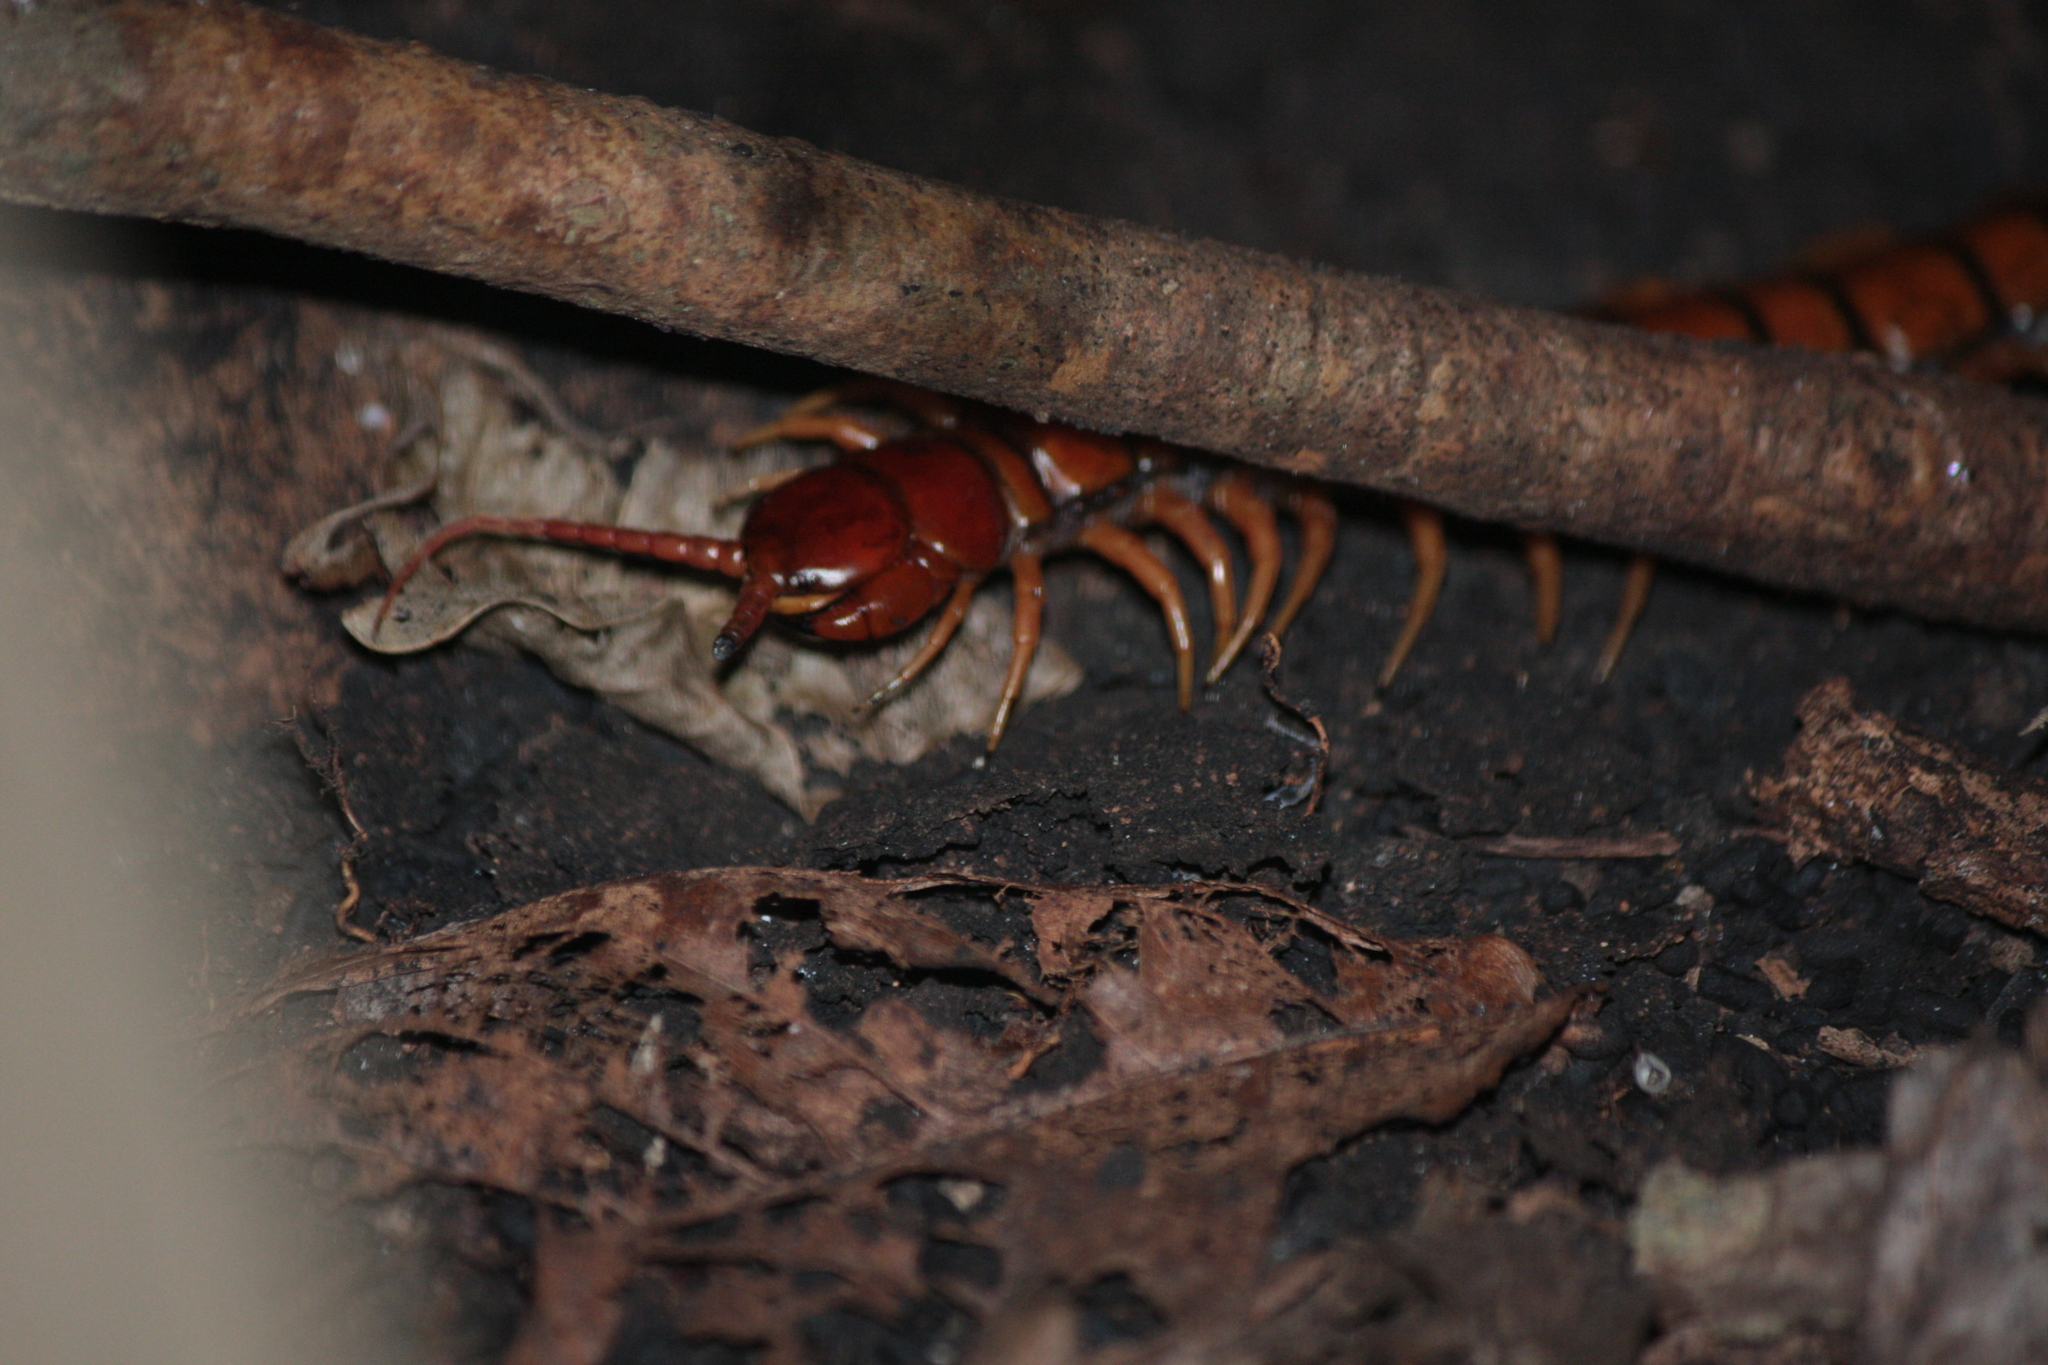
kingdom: Animalia
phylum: Arthropoda
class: Chilopoda
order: Scolopendromorpha
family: Scolopendridae
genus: Scolopendra
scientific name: Scolopendra subspinipes
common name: Centipede
